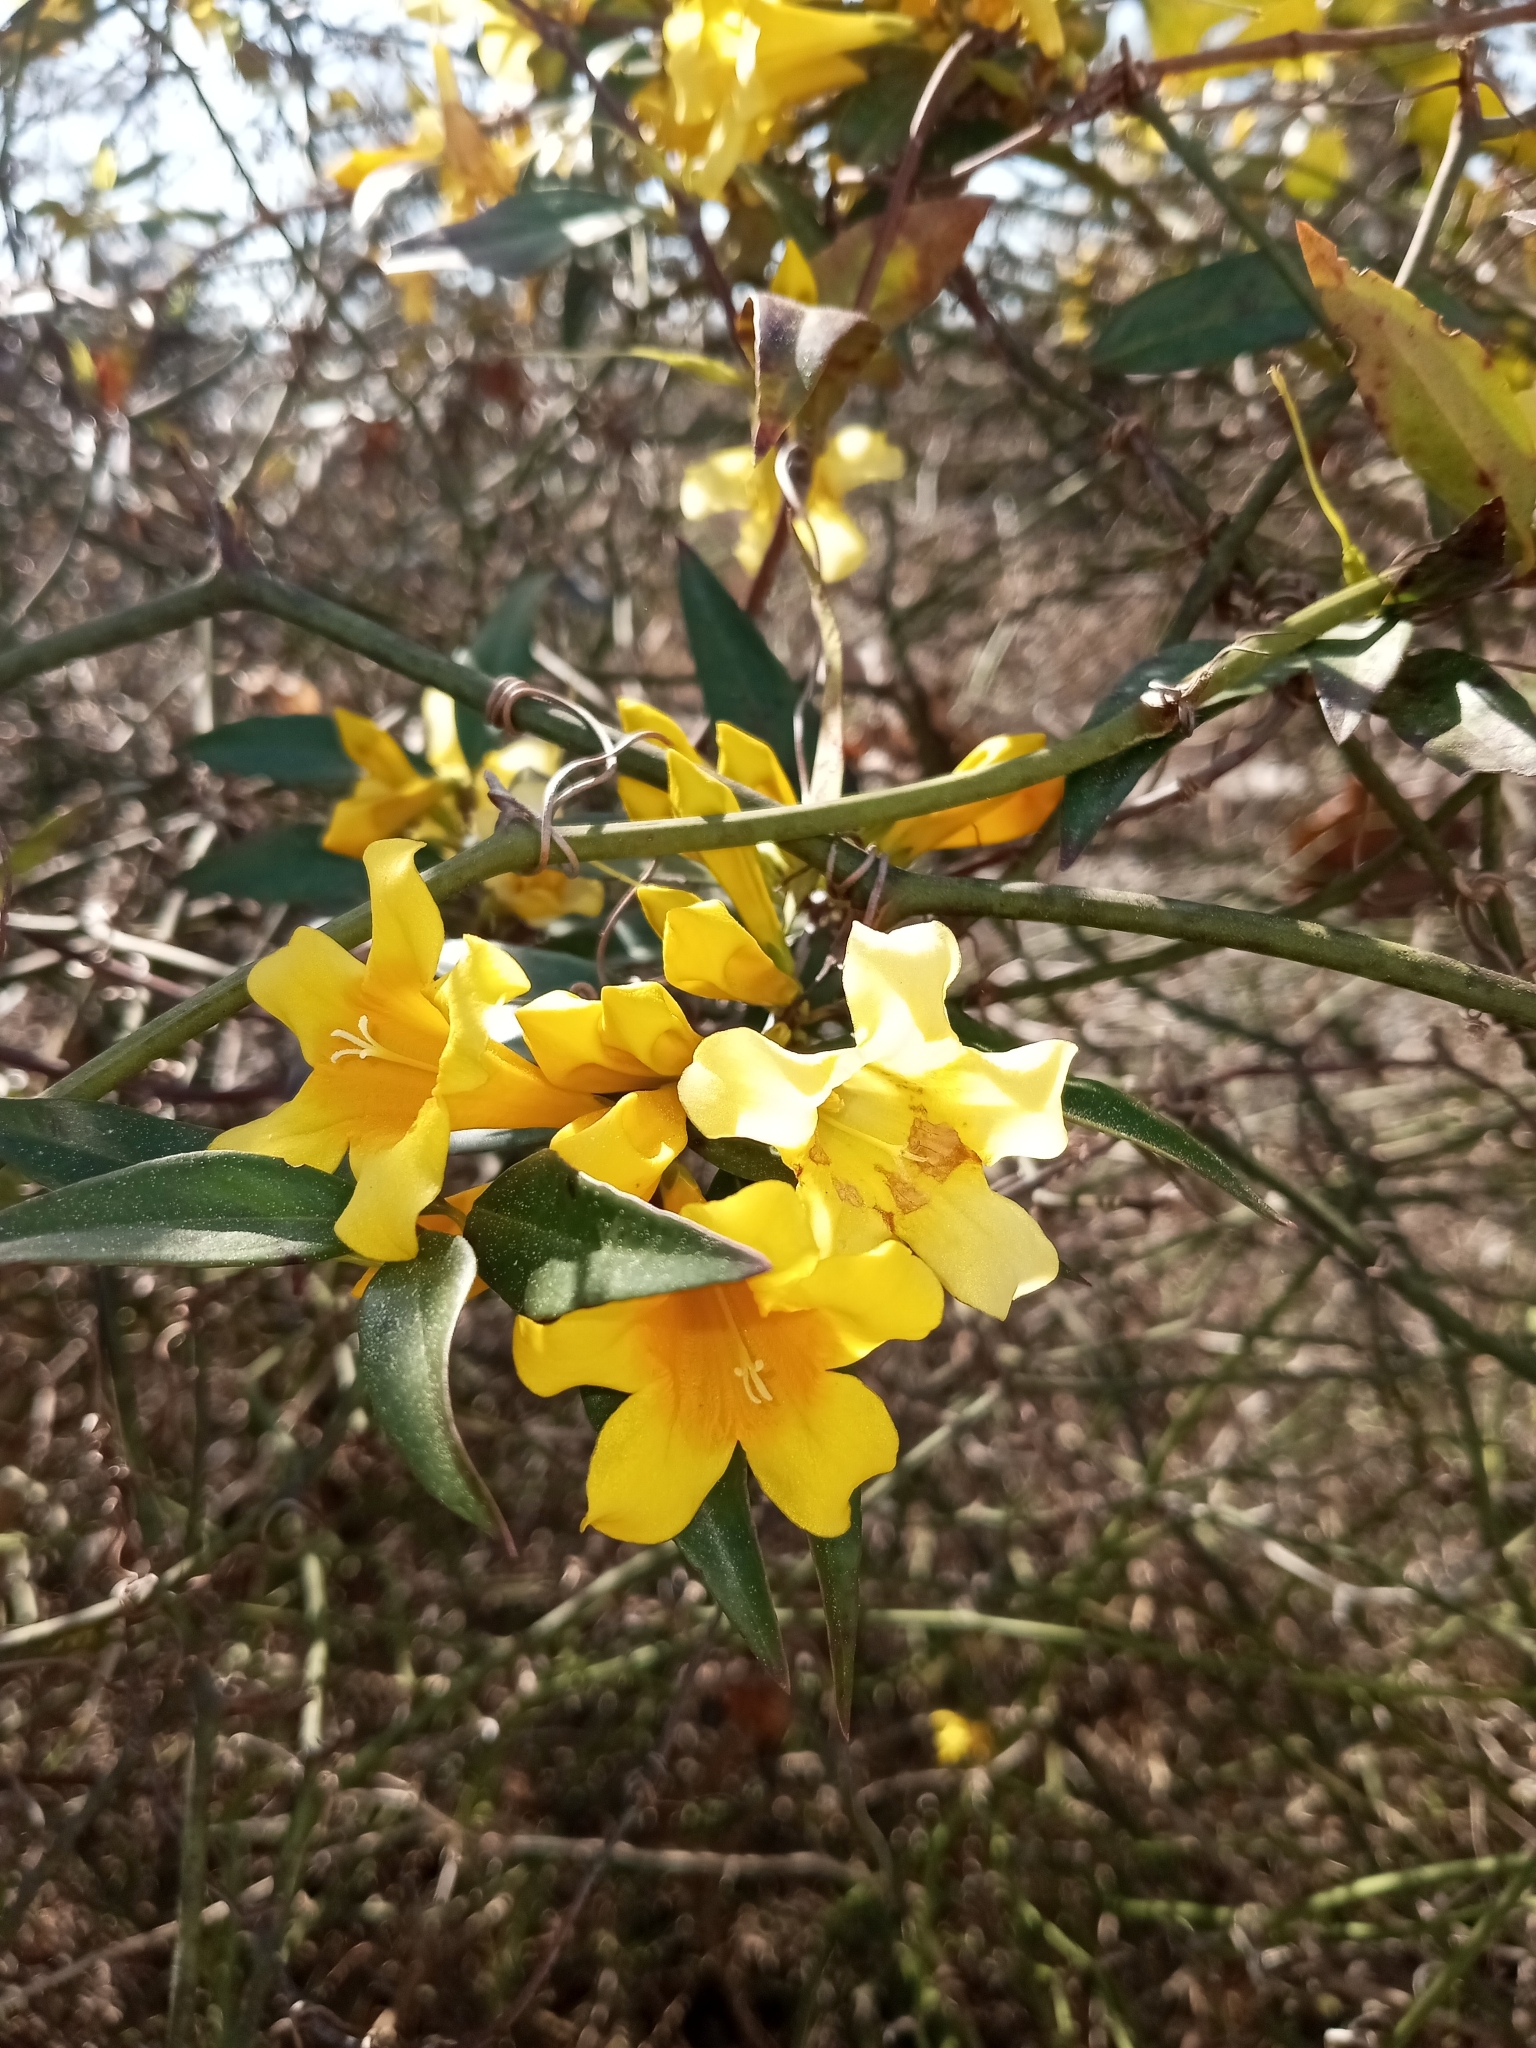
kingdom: Plantae
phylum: Tracheophyta
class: Magnoliopsida
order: Gentianales
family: Gelsemiaceae
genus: Gelsemium
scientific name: Gelsemium sempervirens
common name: Carolina-jasmine
